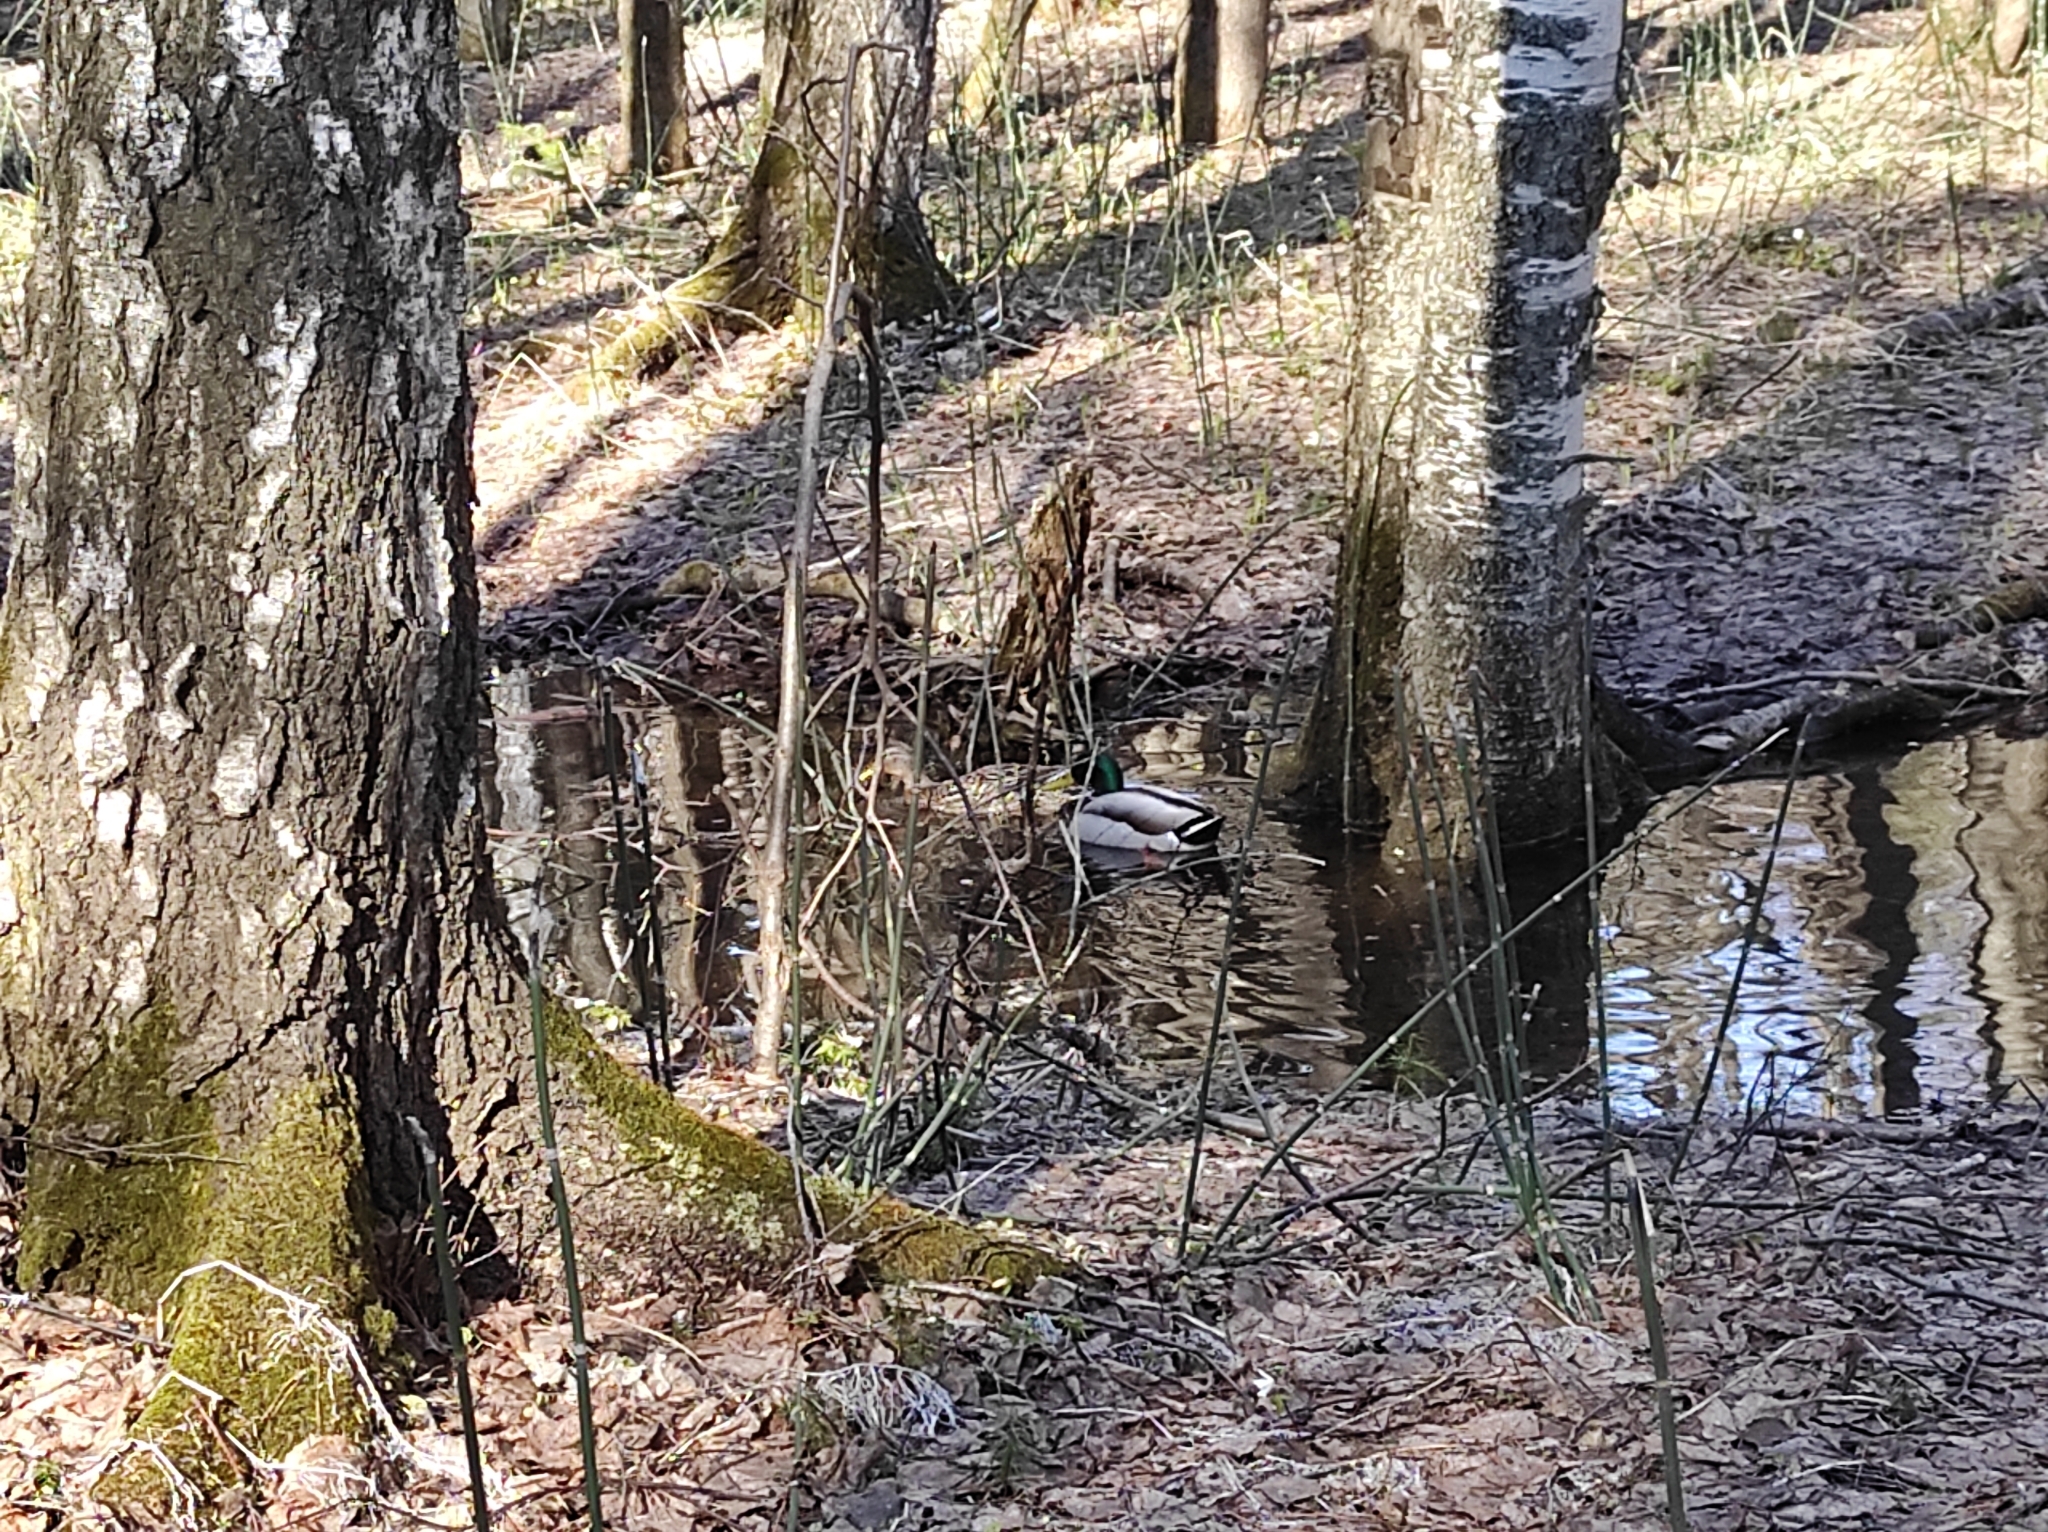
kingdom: Animalia
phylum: Chordata
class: Aves
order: Anseriformes
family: Anatidae
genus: Anas
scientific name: Anas platyrhynchos
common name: Mallard
